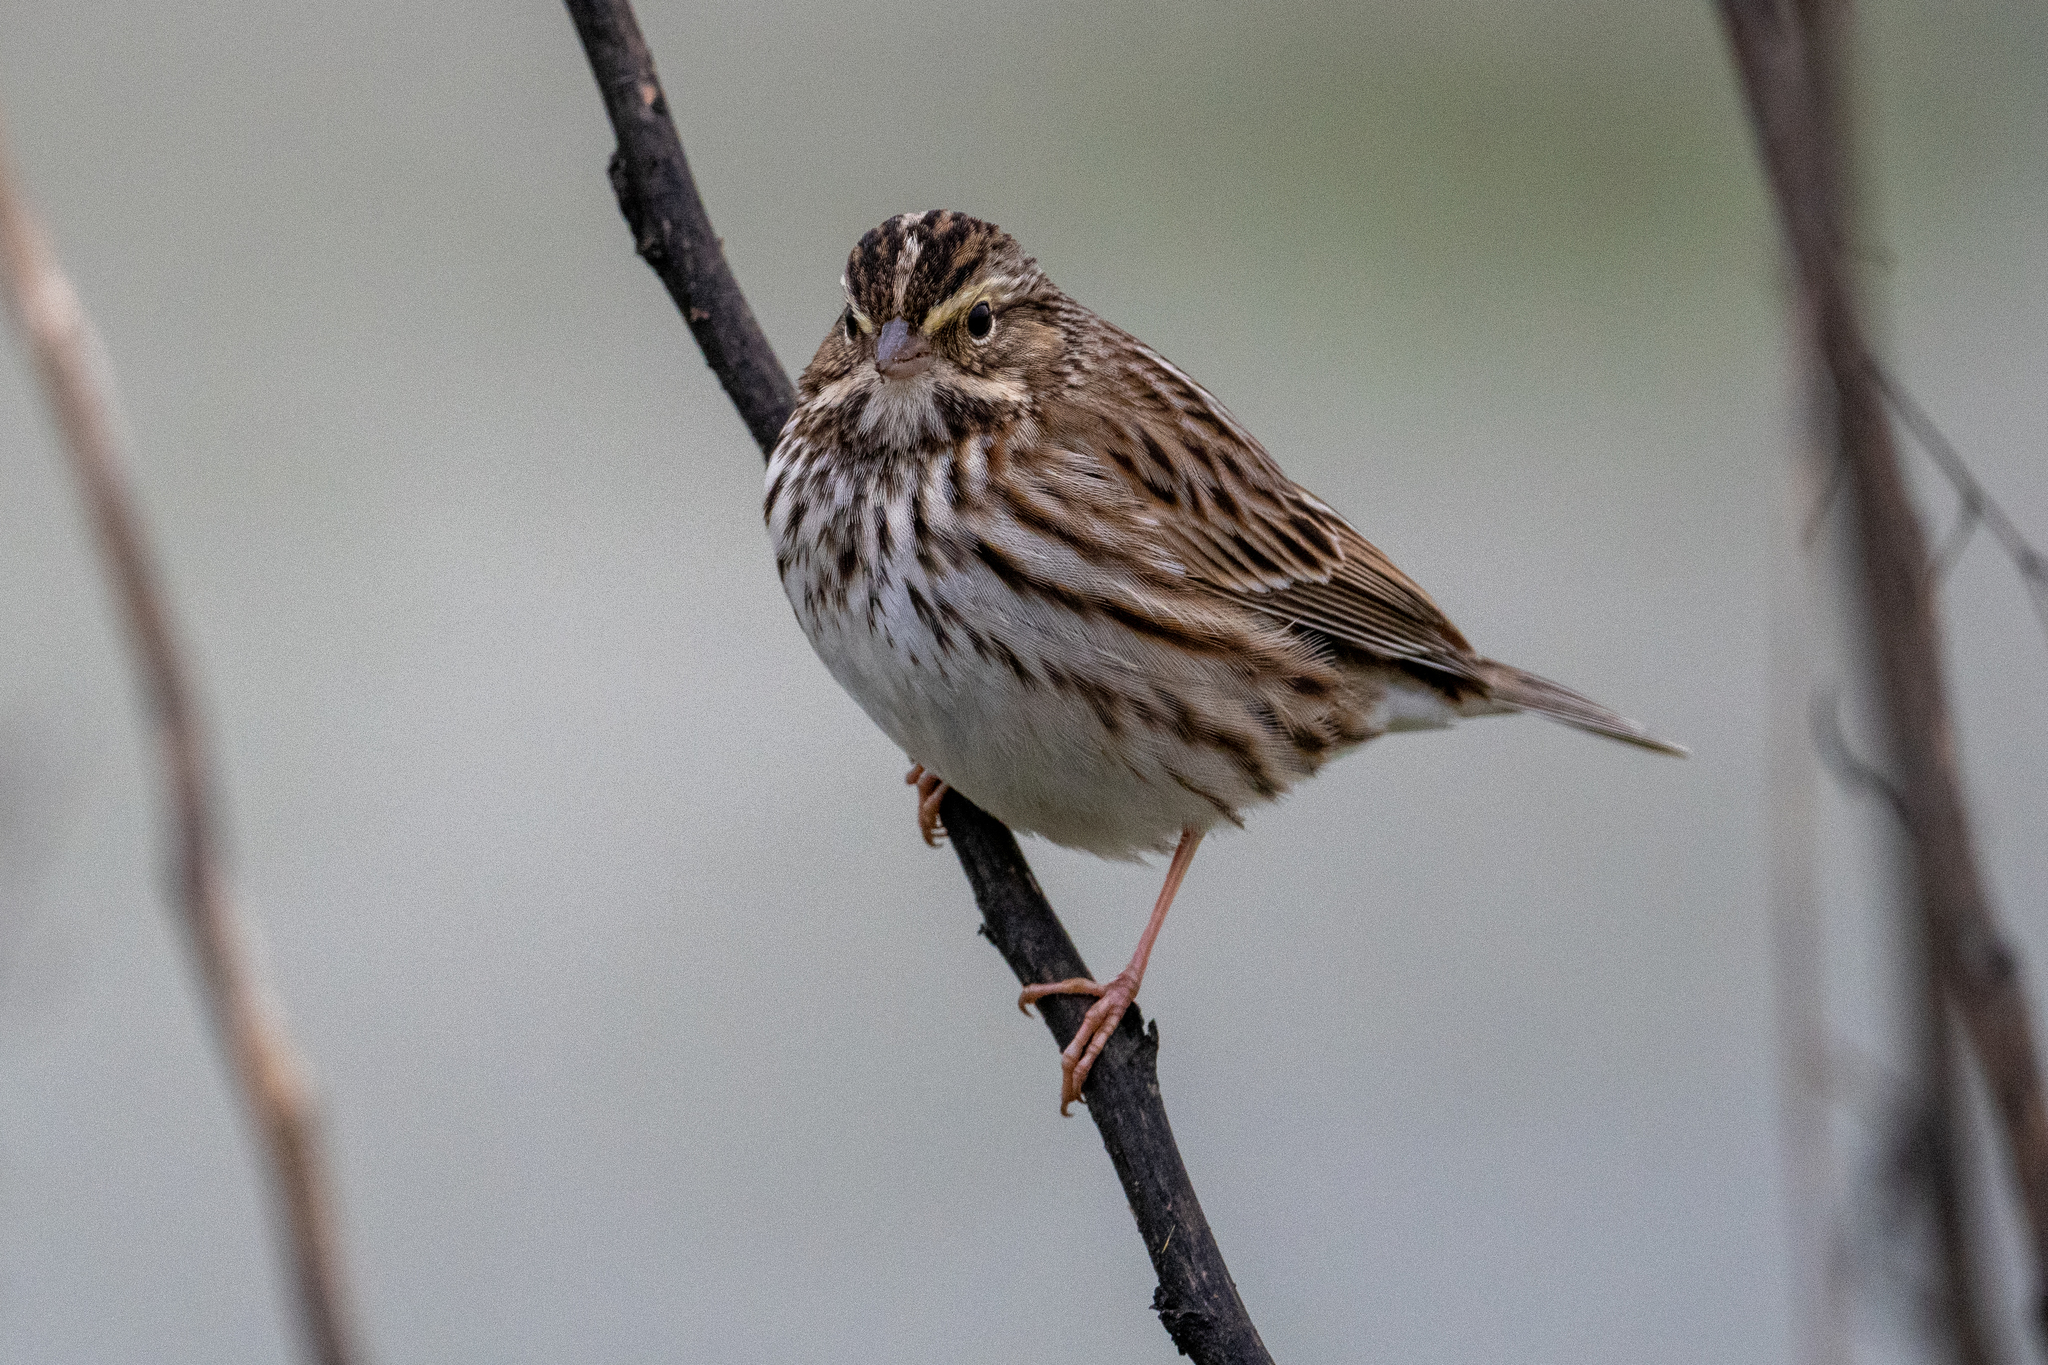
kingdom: Animalia
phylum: Chordata
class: Aves
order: Passeriformes
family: Passerellidae
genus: Passerculus
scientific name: Passerculus sandwichensis
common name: Savannah sparrow
